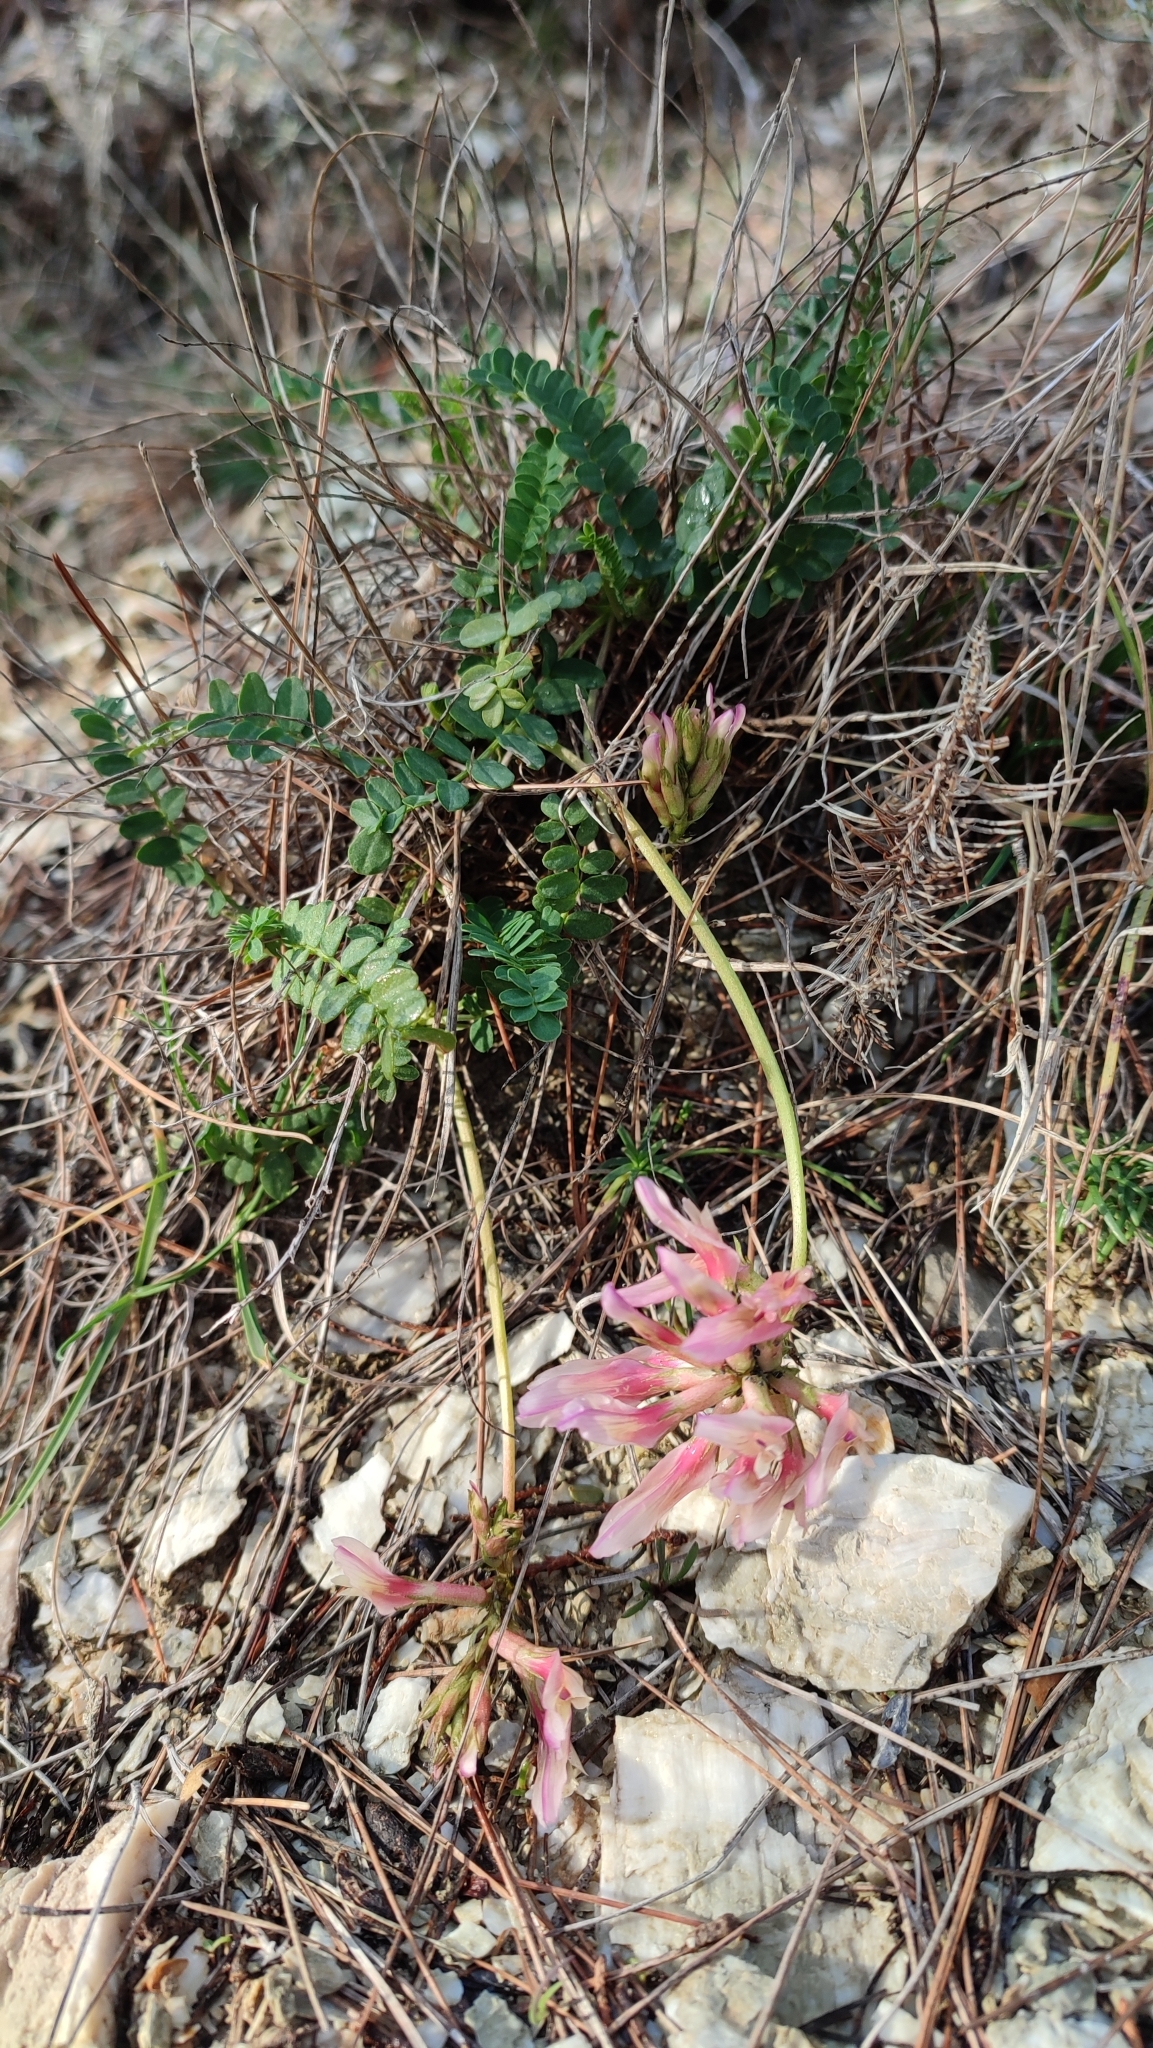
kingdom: Plantae
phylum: Tracheophyta
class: Magnoliopsida
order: Fabales
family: Fabaceae
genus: Astragalus
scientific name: Astragalus monspessulanus
